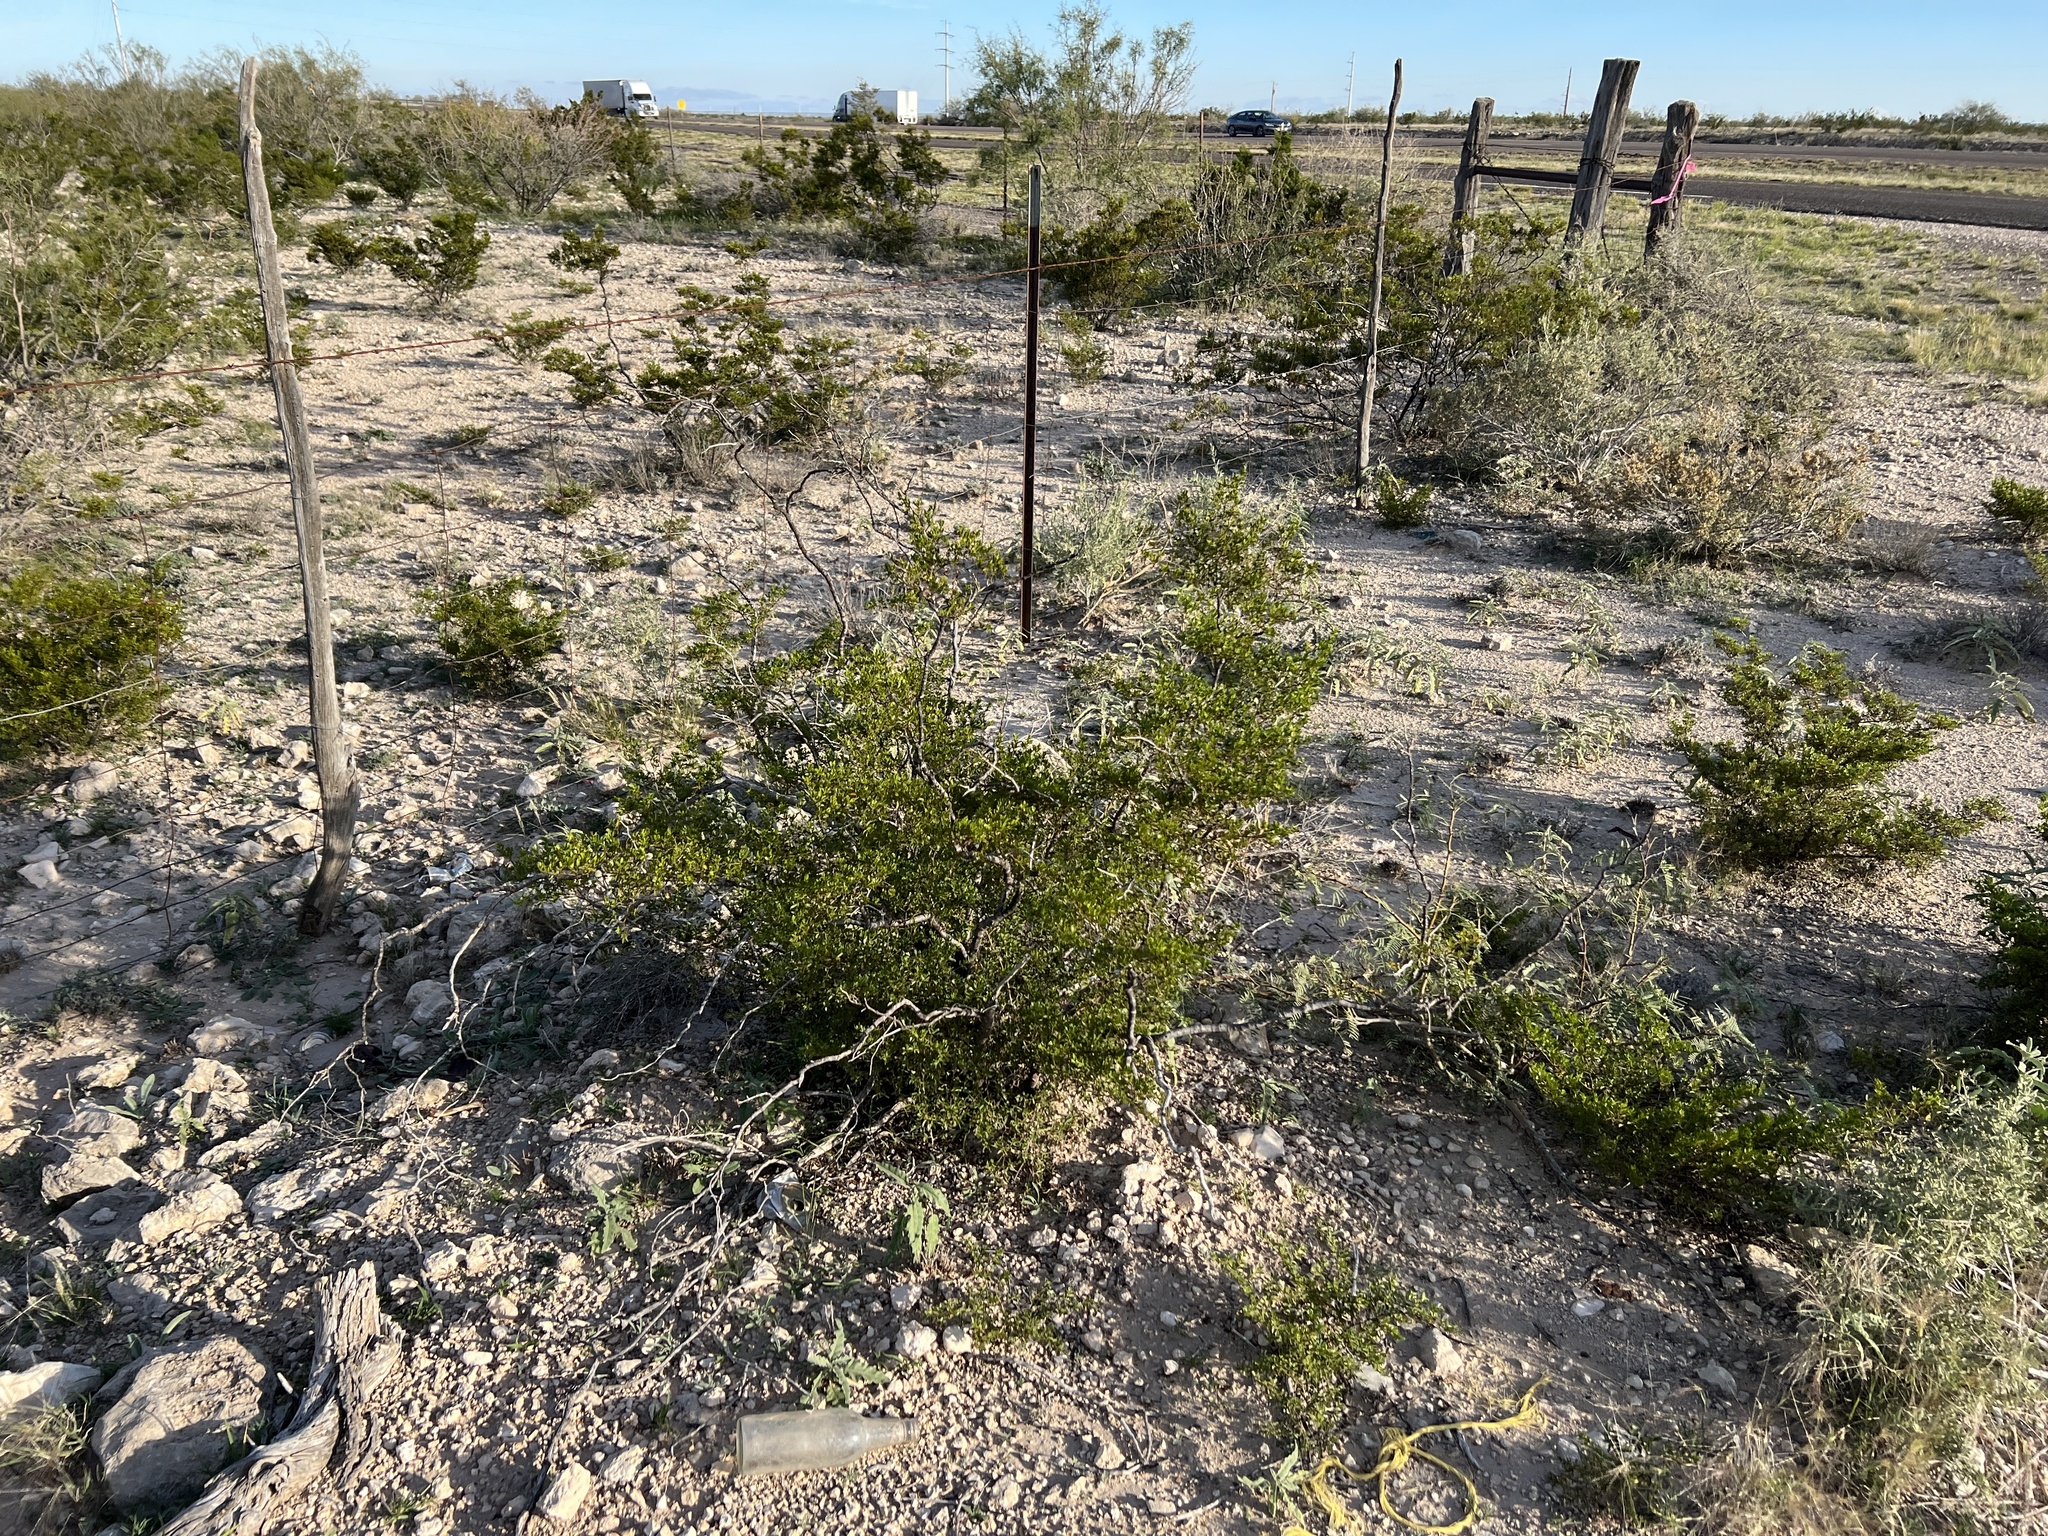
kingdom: Plantae
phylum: Tracheophyta
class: Magnoliopsida
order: Zygophyllales
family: Zygophyllaceae
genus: Larrea
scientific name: Larrea tridentata
